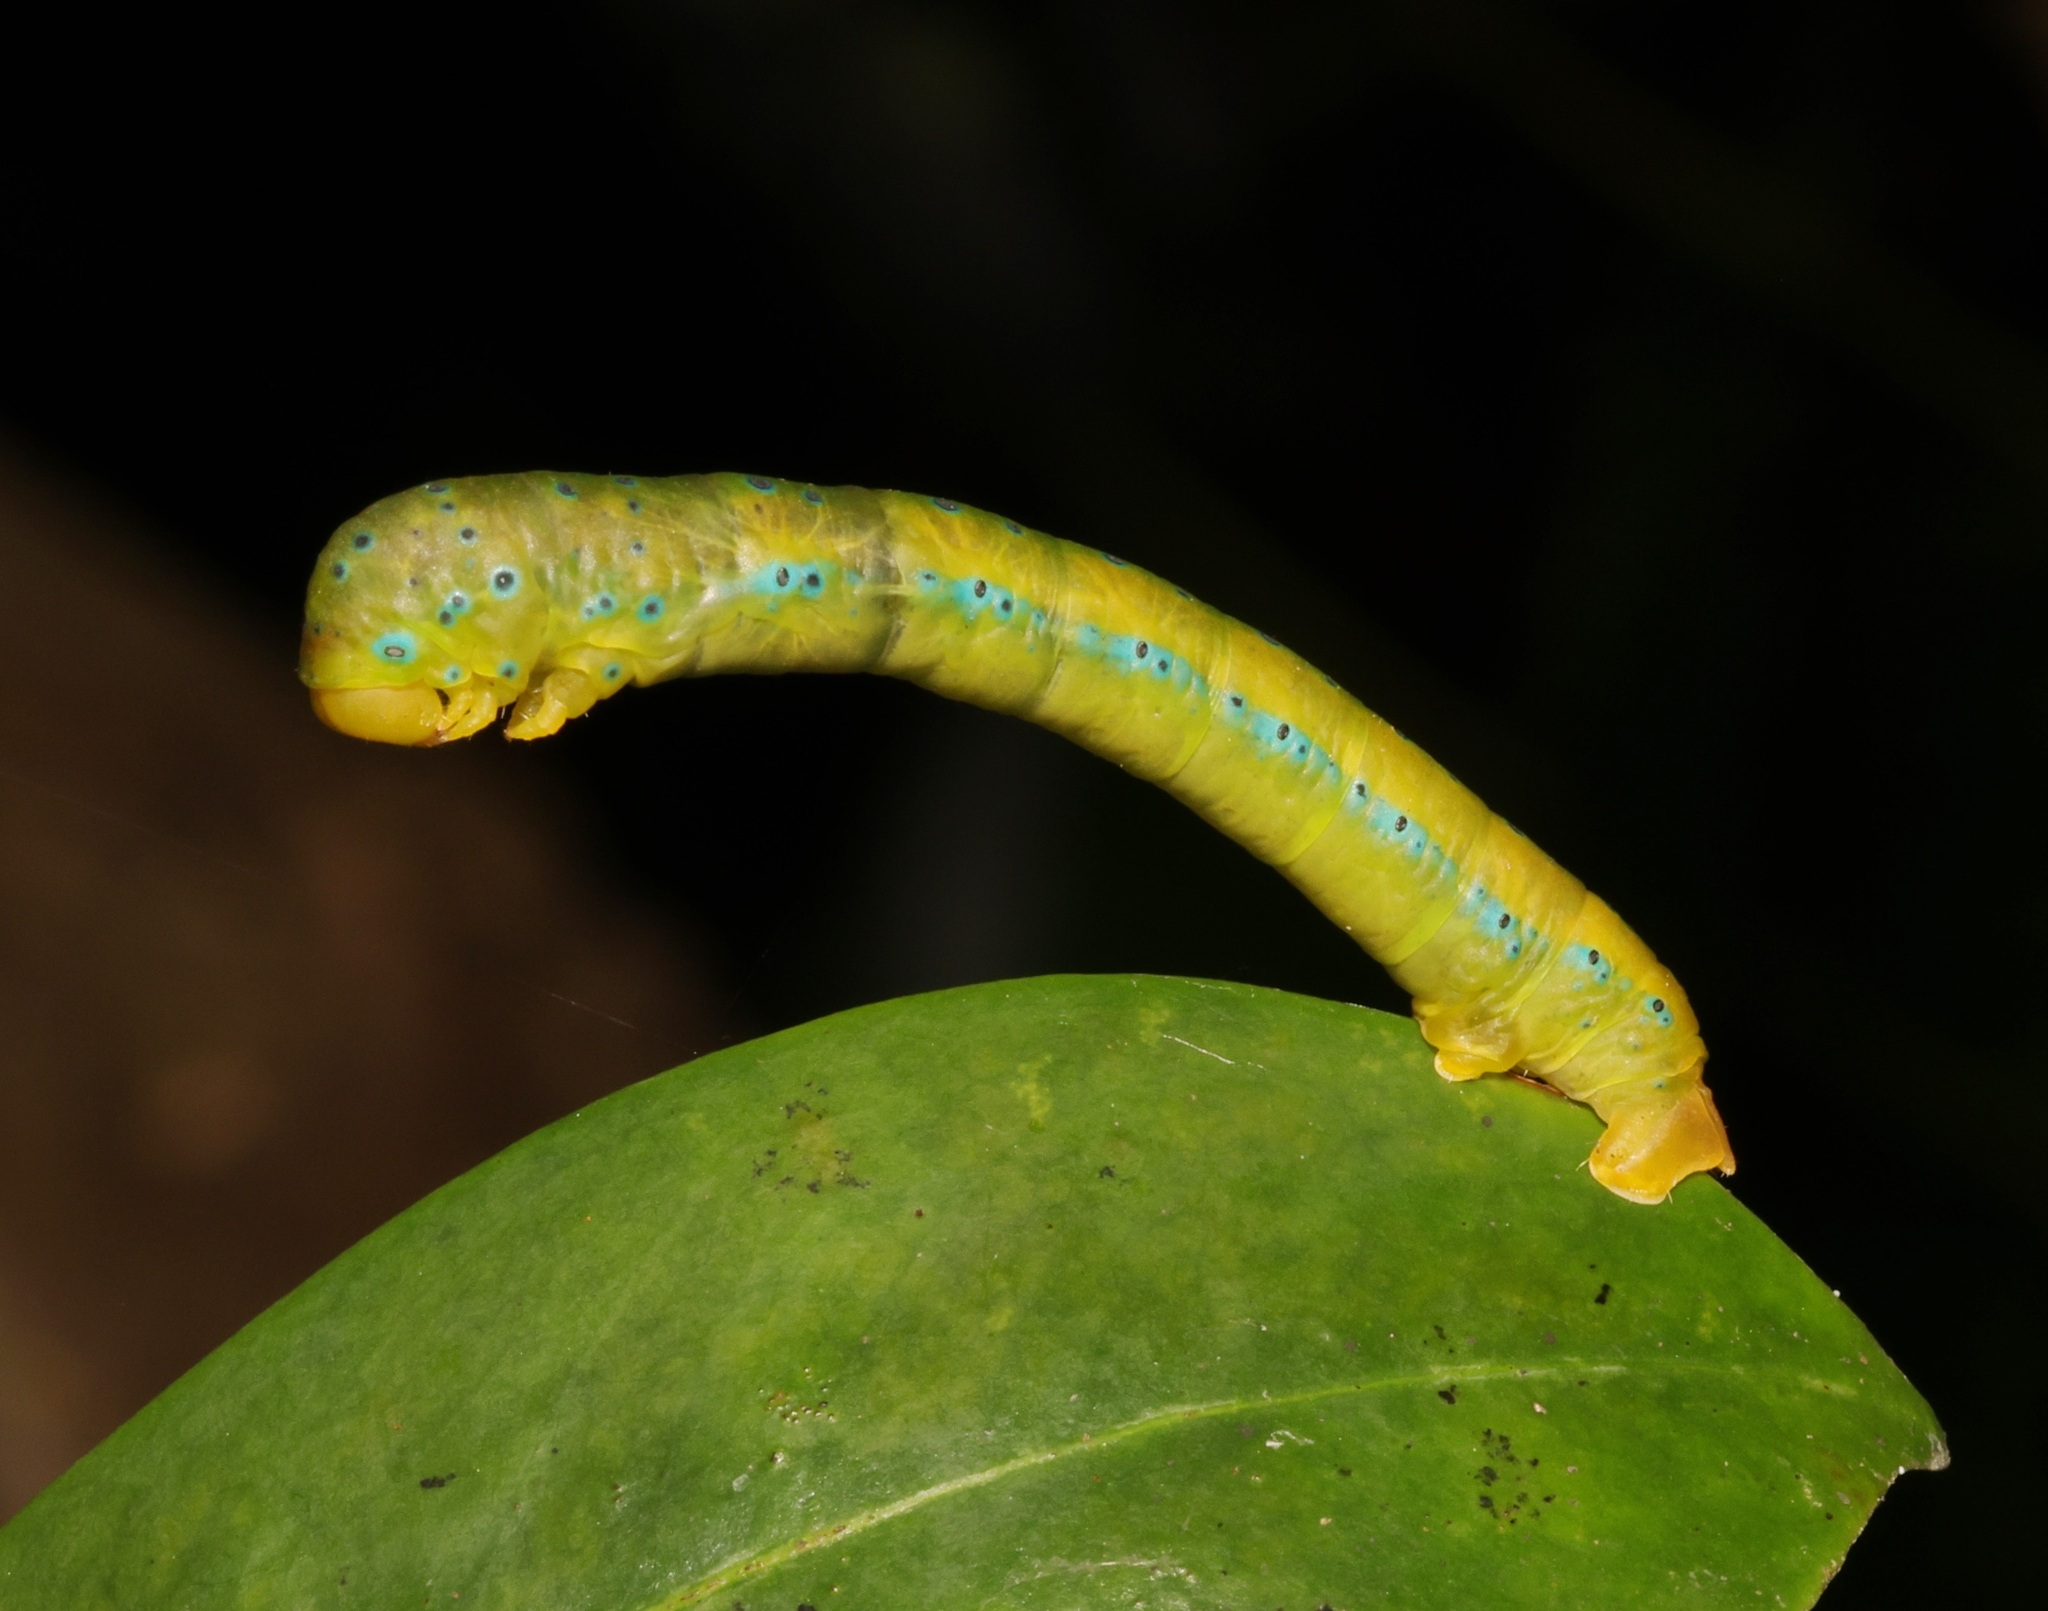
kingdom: Animalia
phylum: Arthropoda
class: Insecta
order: Lepidoptera
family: Geometridae
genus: Dysphania
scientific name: Dysphania militaris
